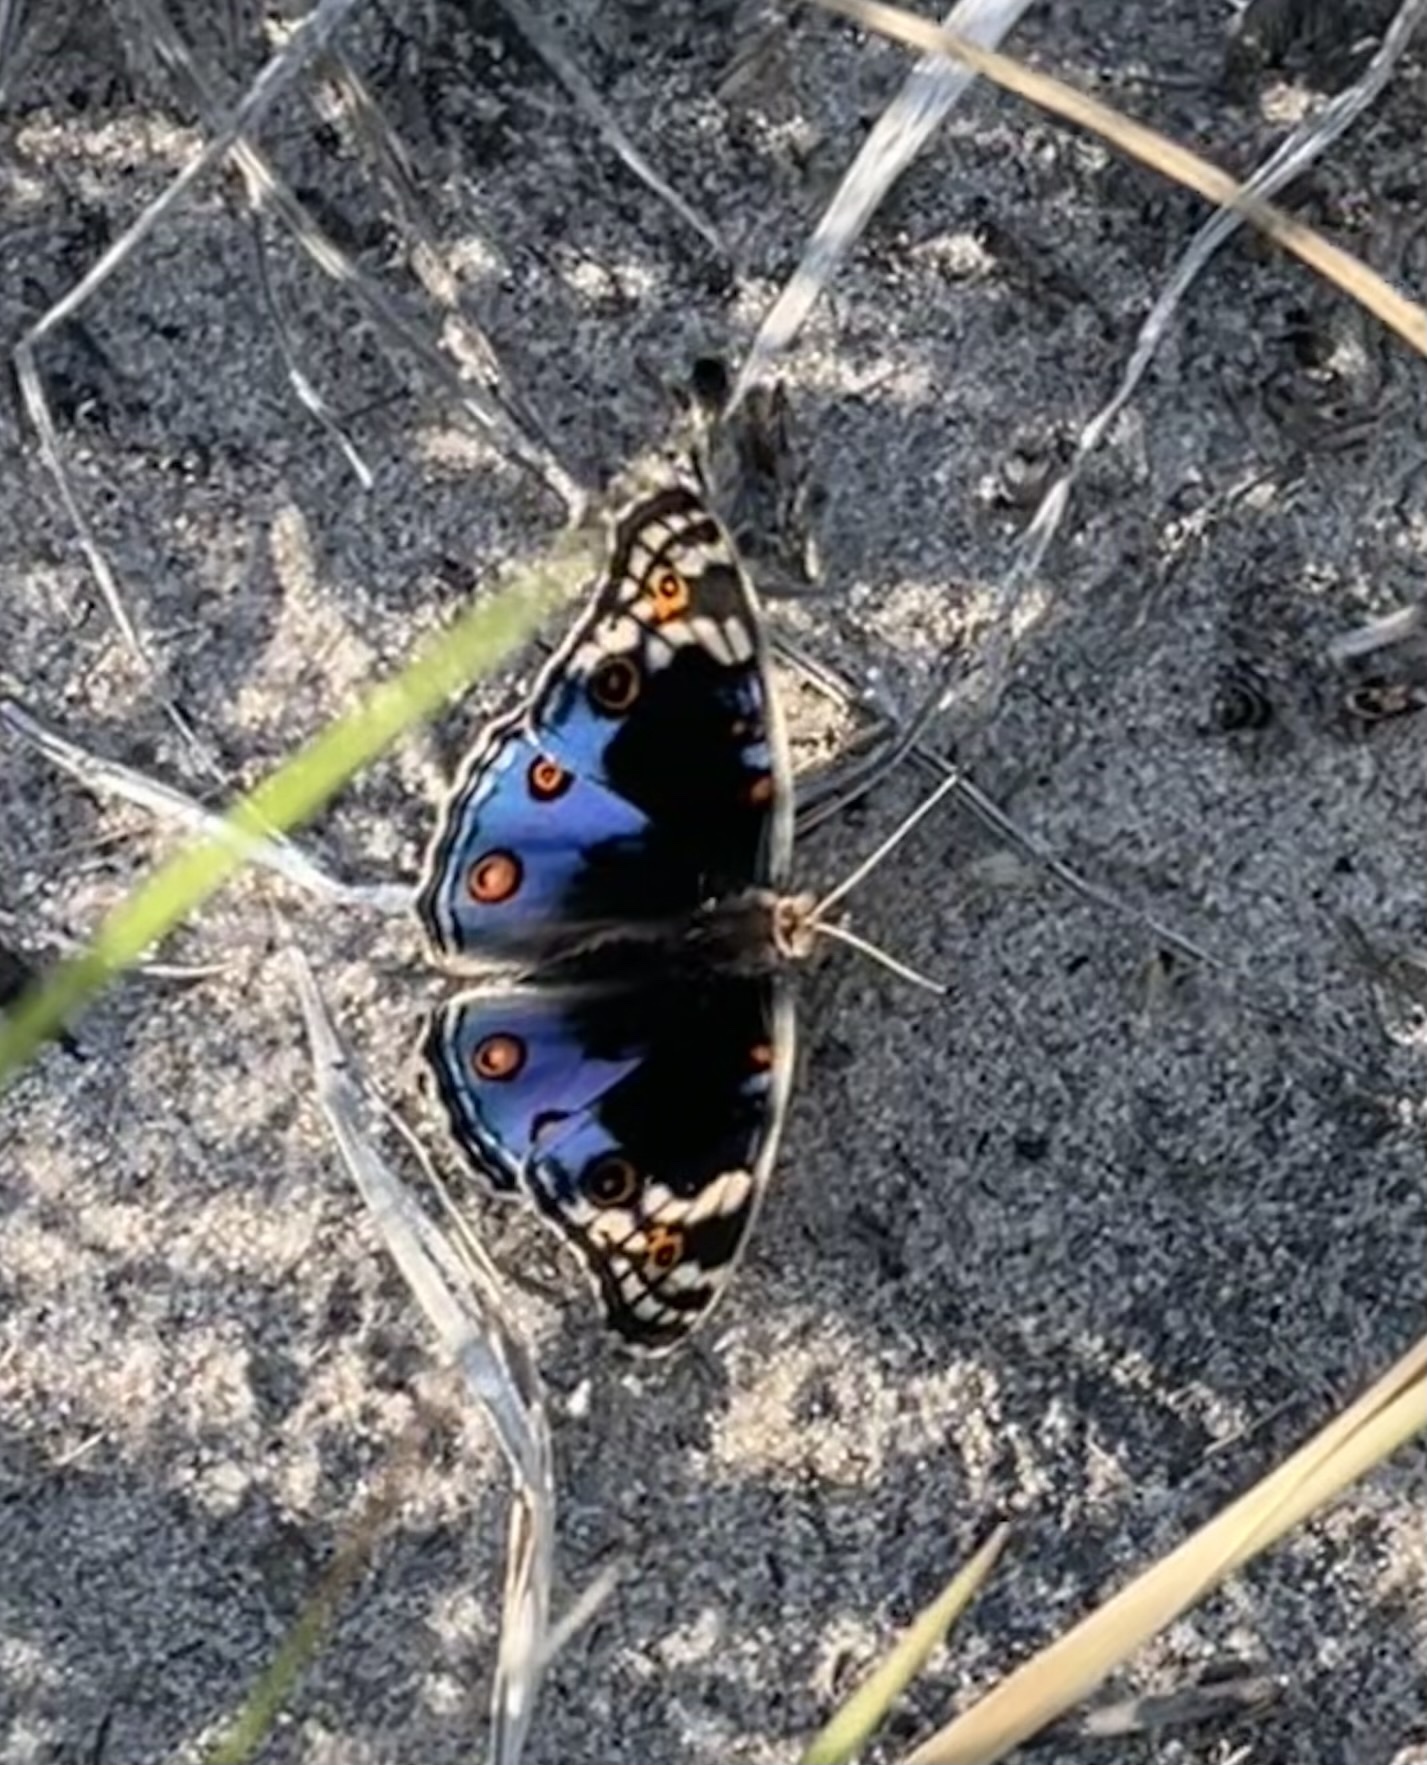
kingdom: Animalia
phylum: Arthropoda
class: Insecta
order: Lepidoptera
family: Nymphalidae
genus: Junonia
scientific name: Junonia orithya
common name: Blue pansy
